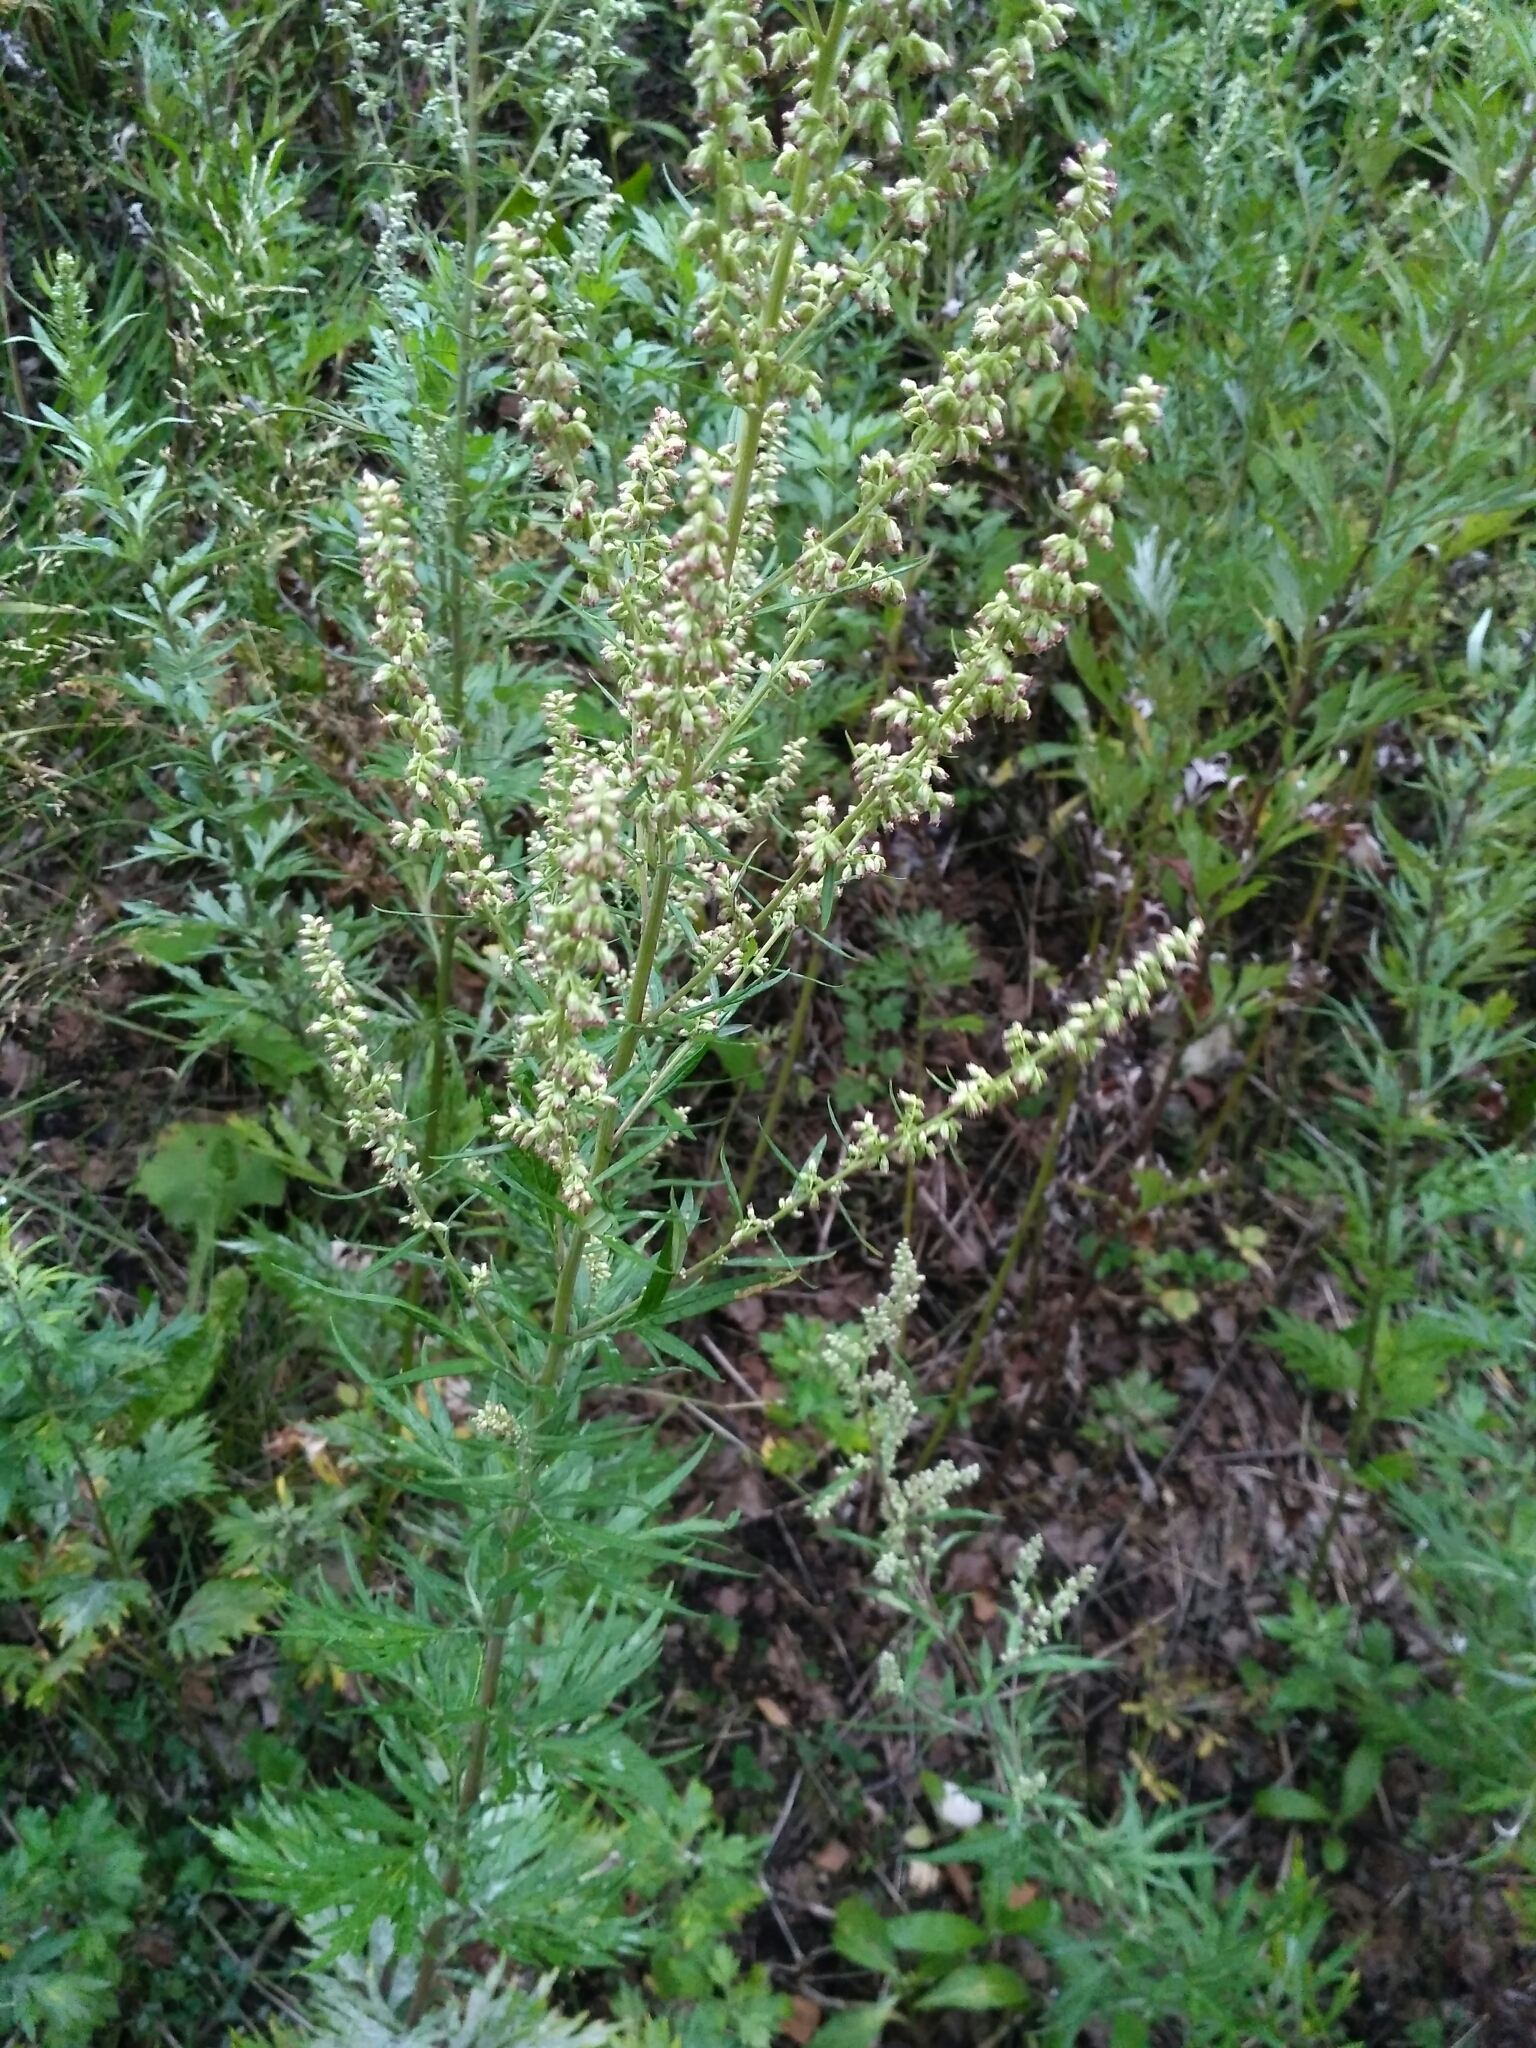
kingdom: Plantae
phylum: Tracheophyta
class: Magnoliopsida
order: Asterales
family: Asteraceae
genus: Artemisia
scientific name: Artemisia vulgaris
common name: Mugwort
